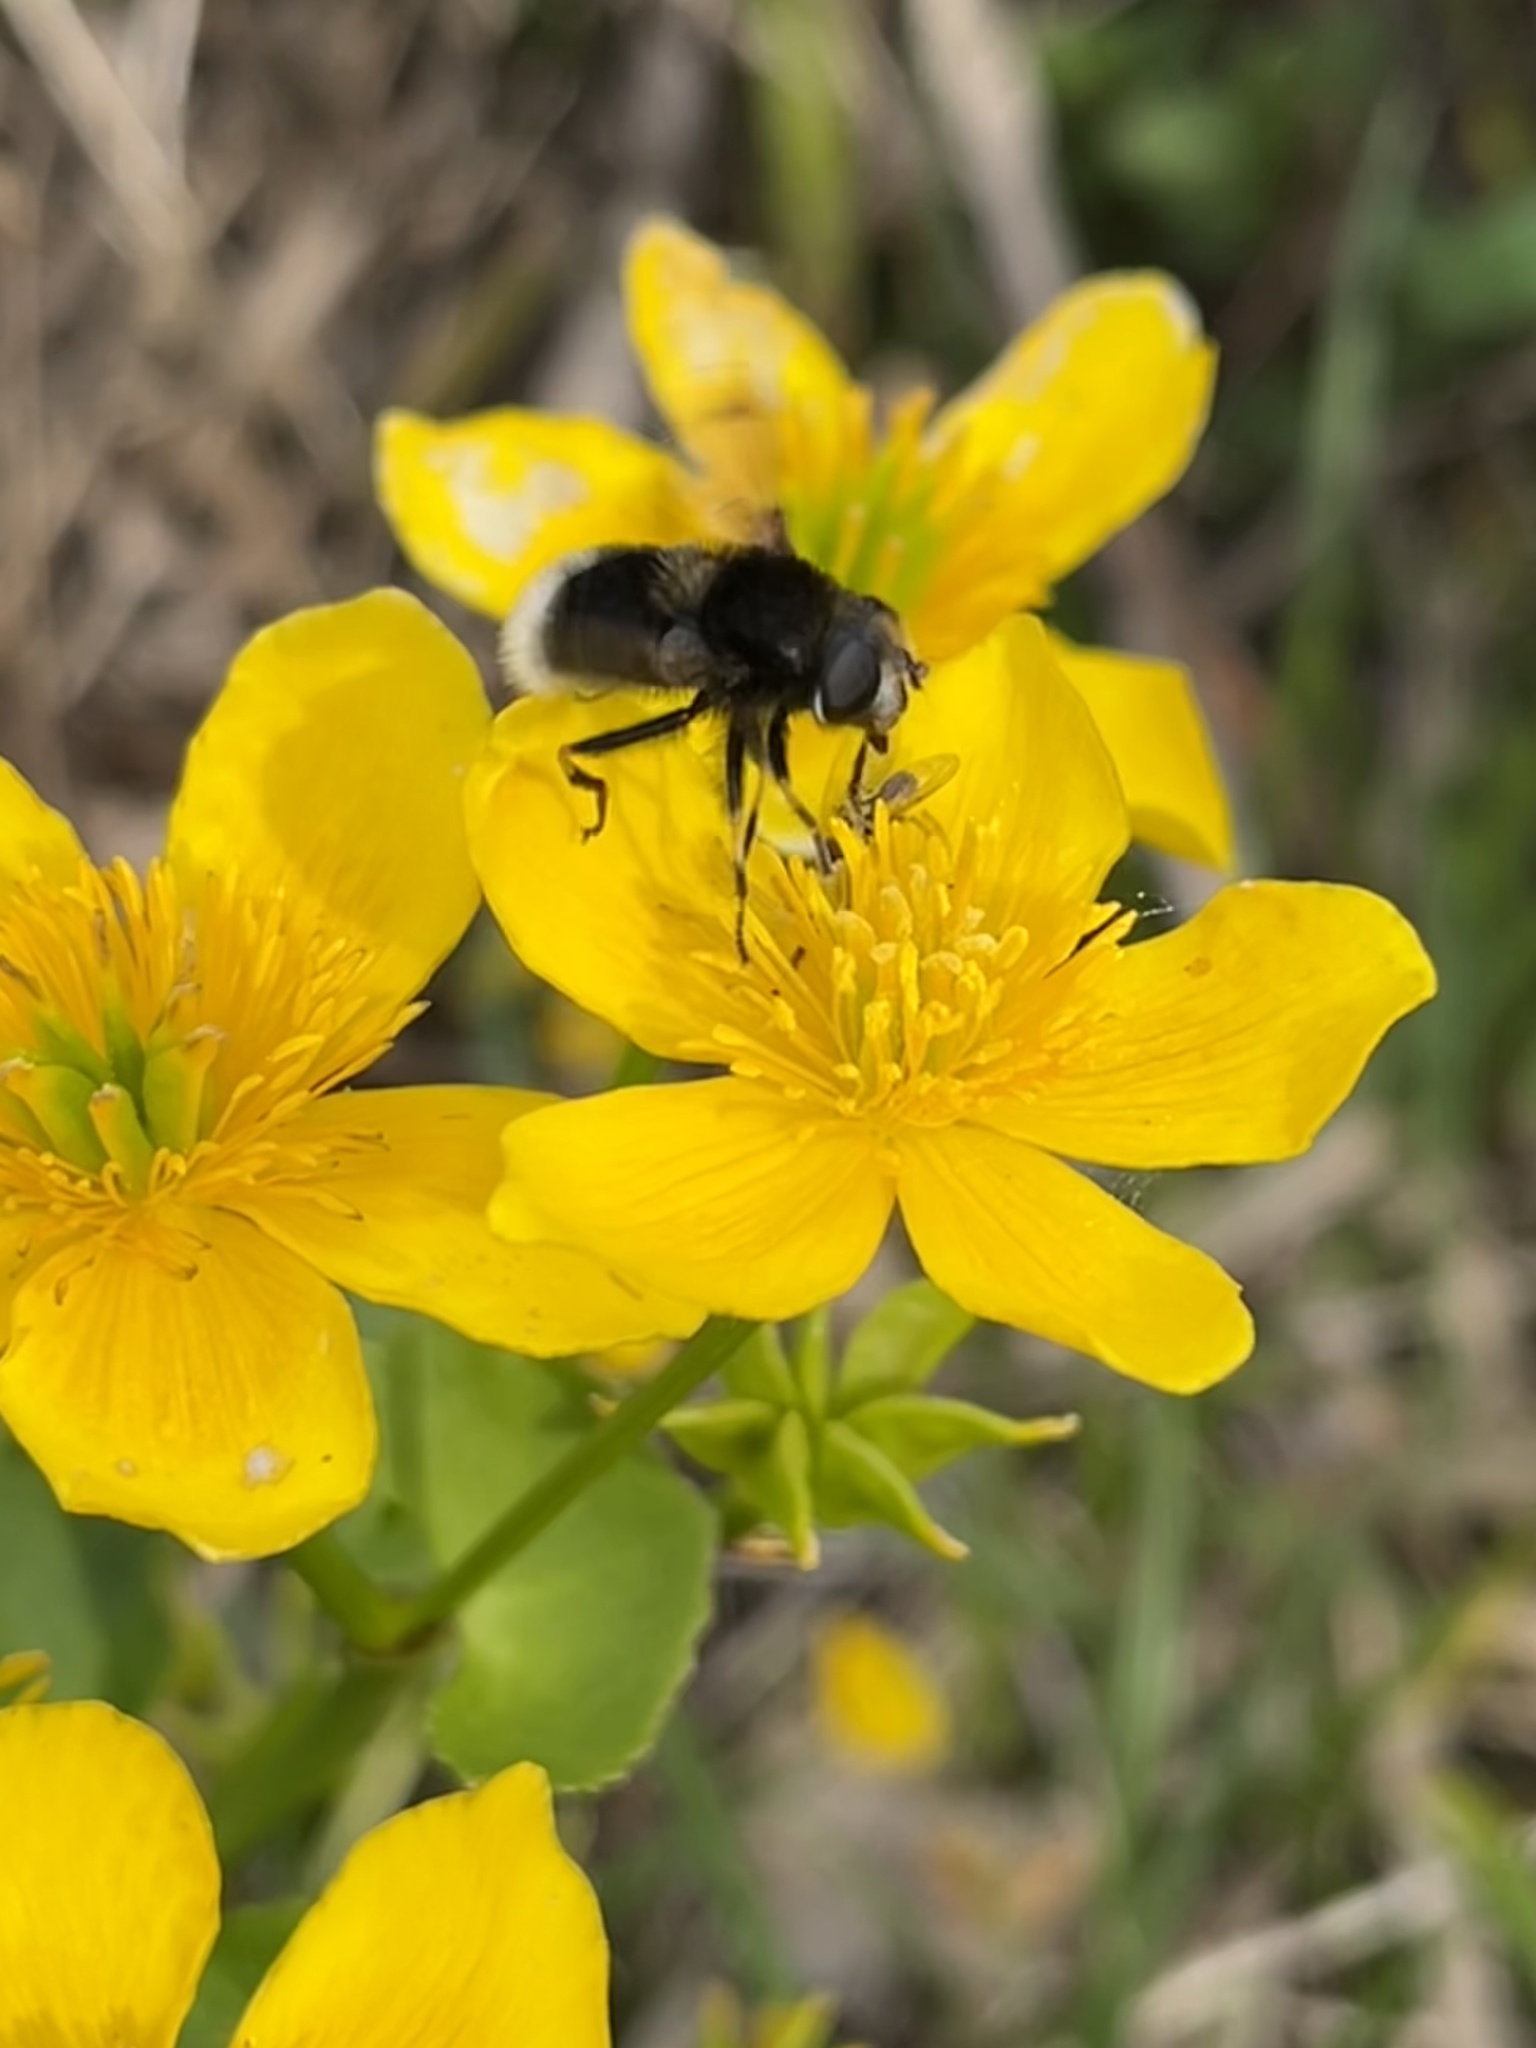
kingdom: Animalia
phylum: Arthropoda
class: Insecta
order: Diptera
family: Syrphidae
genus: Eristalis
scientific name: Eristalis intricaria
